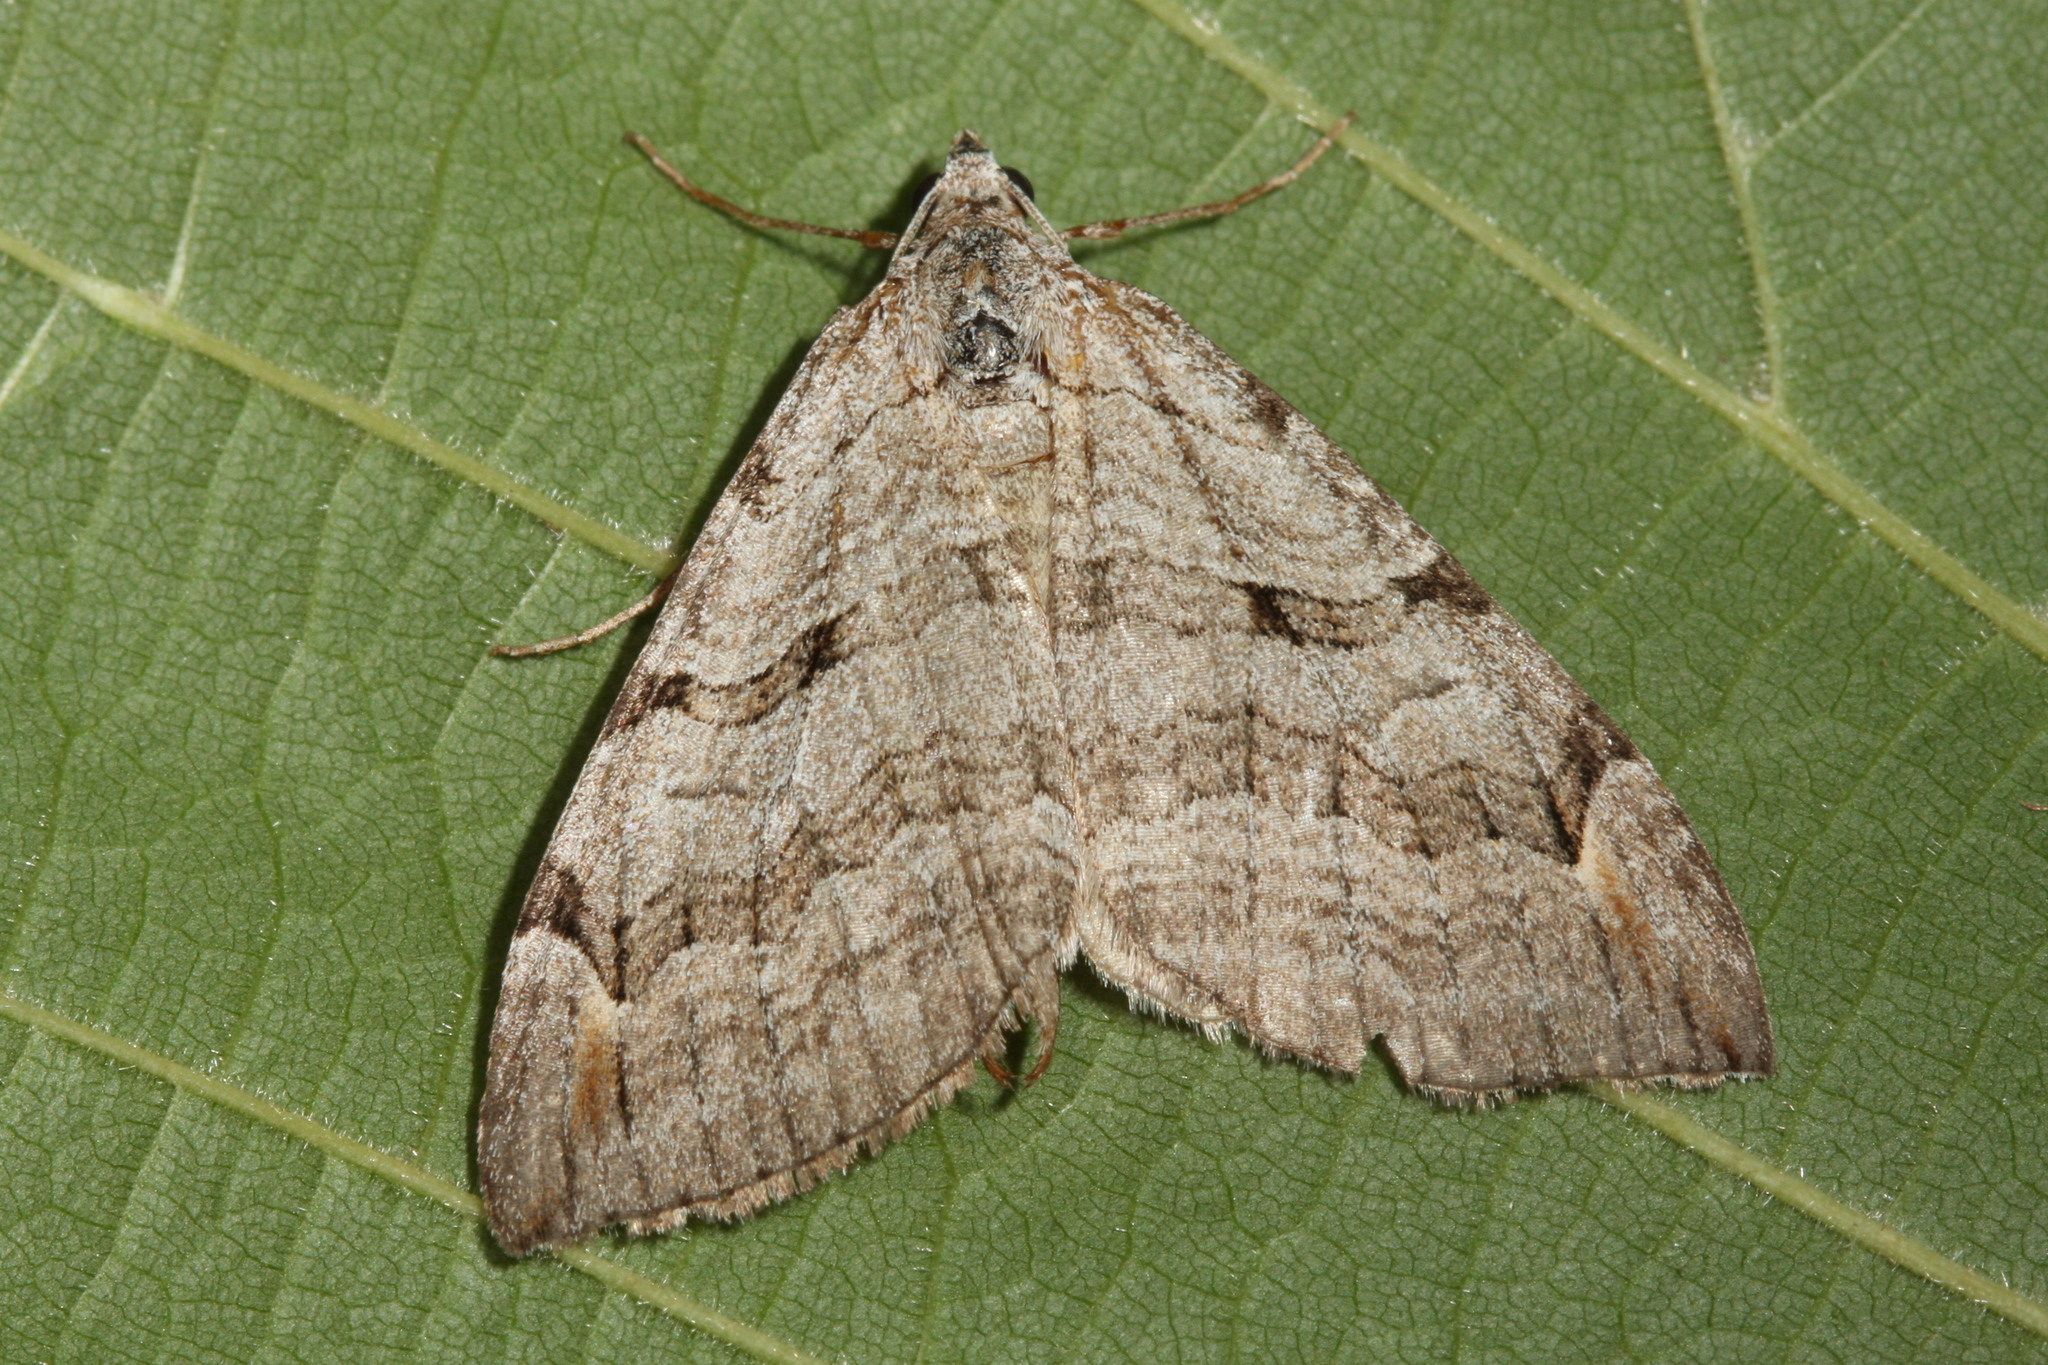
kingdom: Animalia
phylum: Arthropoda
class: Insecta
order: Lepidoptera
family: Geometridae
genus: Aplocera
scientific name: Aplocera plagiata
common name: Treble-bar
